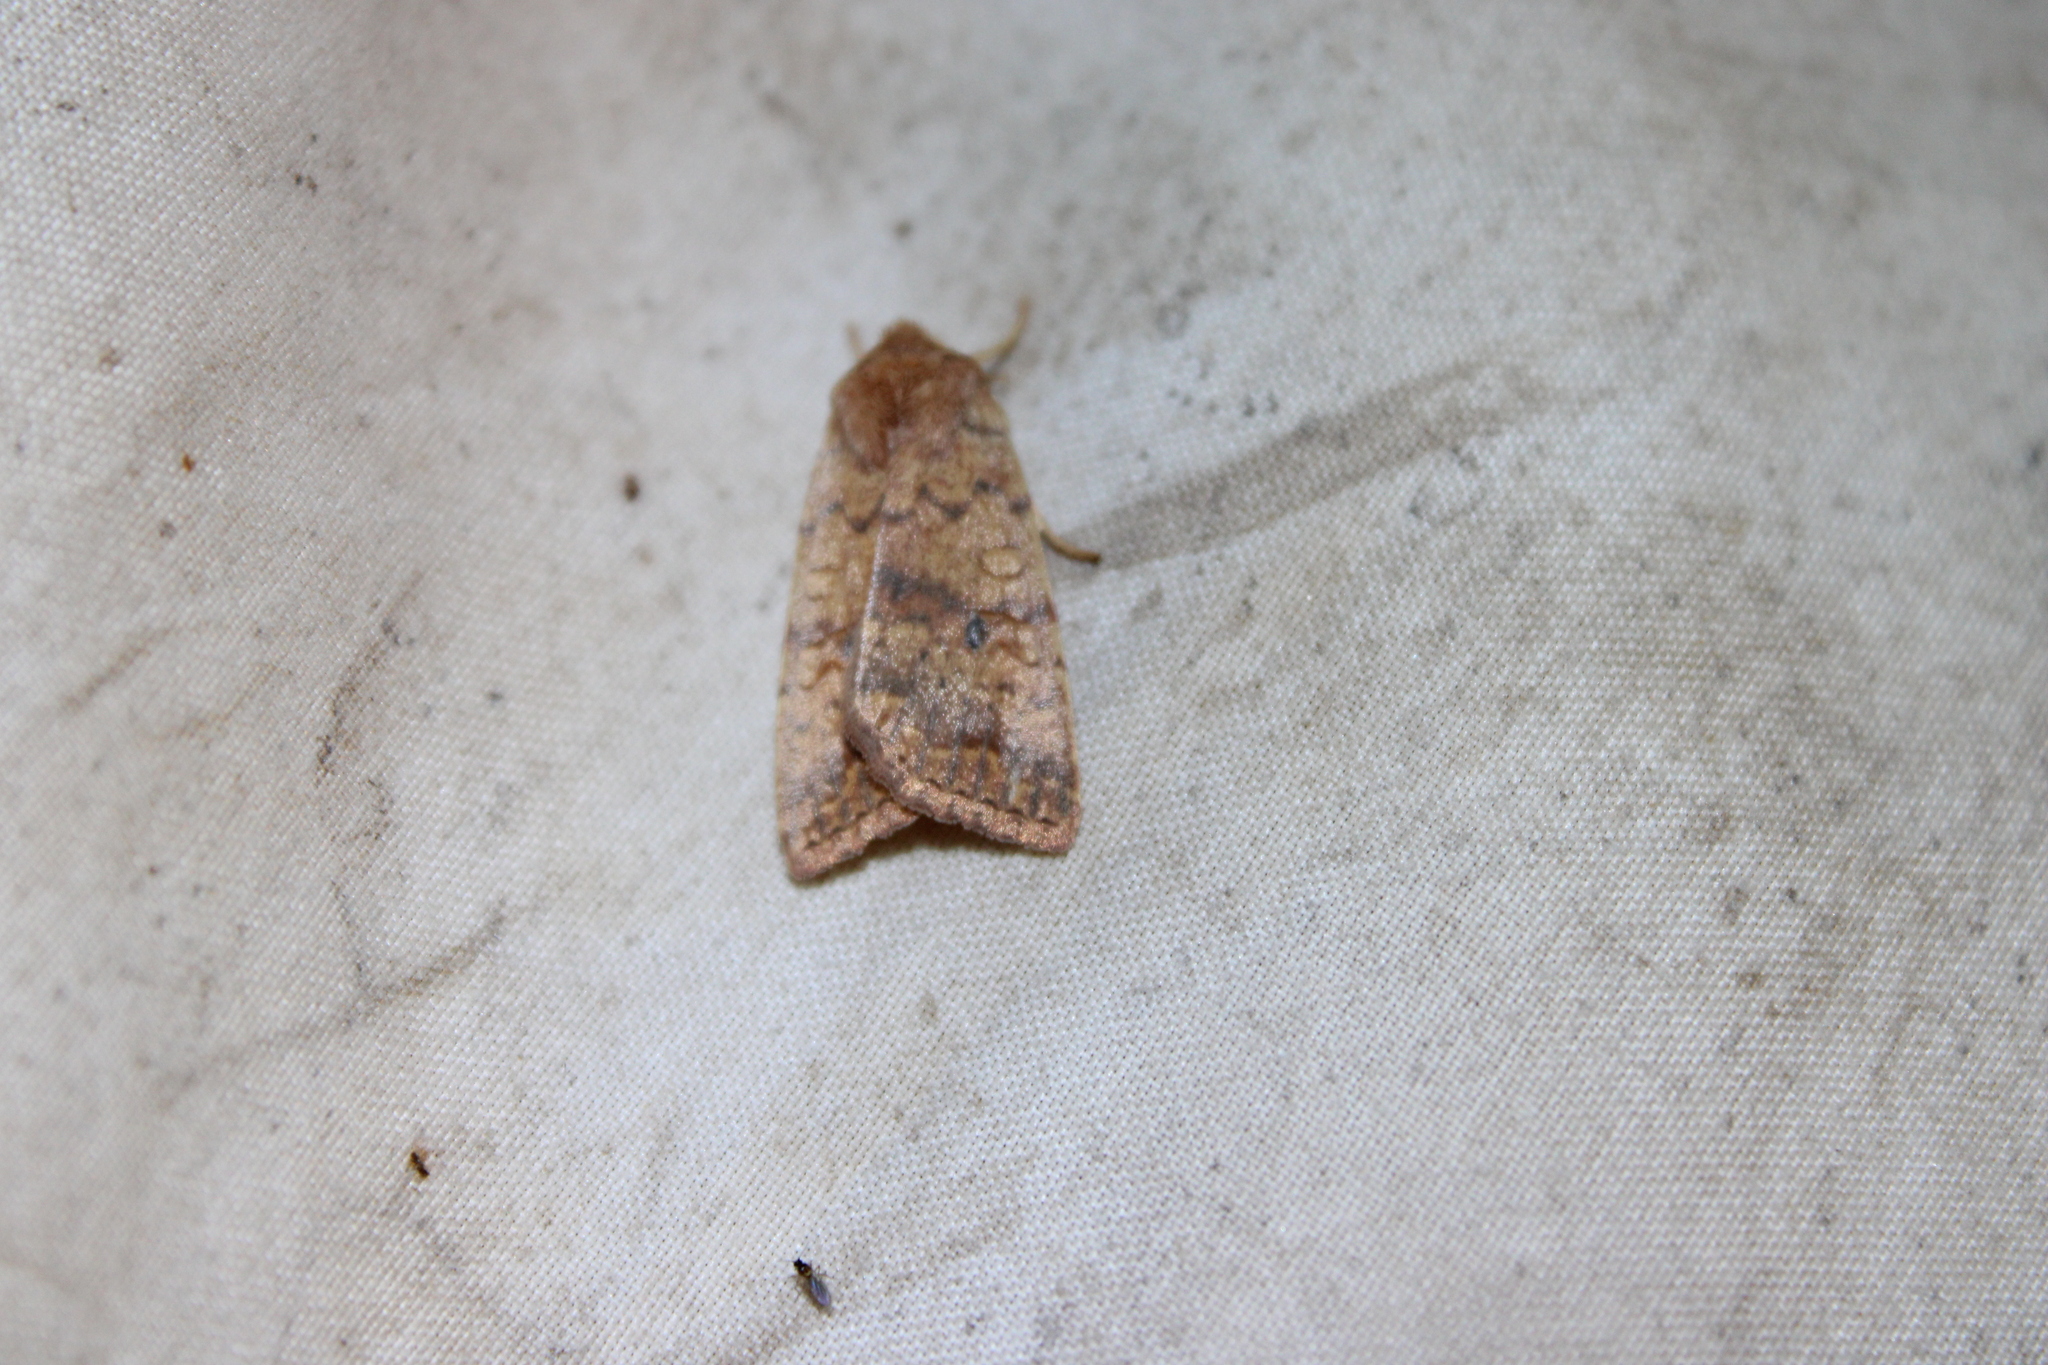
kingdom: Animalia
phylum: Arthropoda
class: Insecta
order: Lepidoptera
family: Noctuidae
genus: Agrochola
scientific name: Agrochola bicolorago
